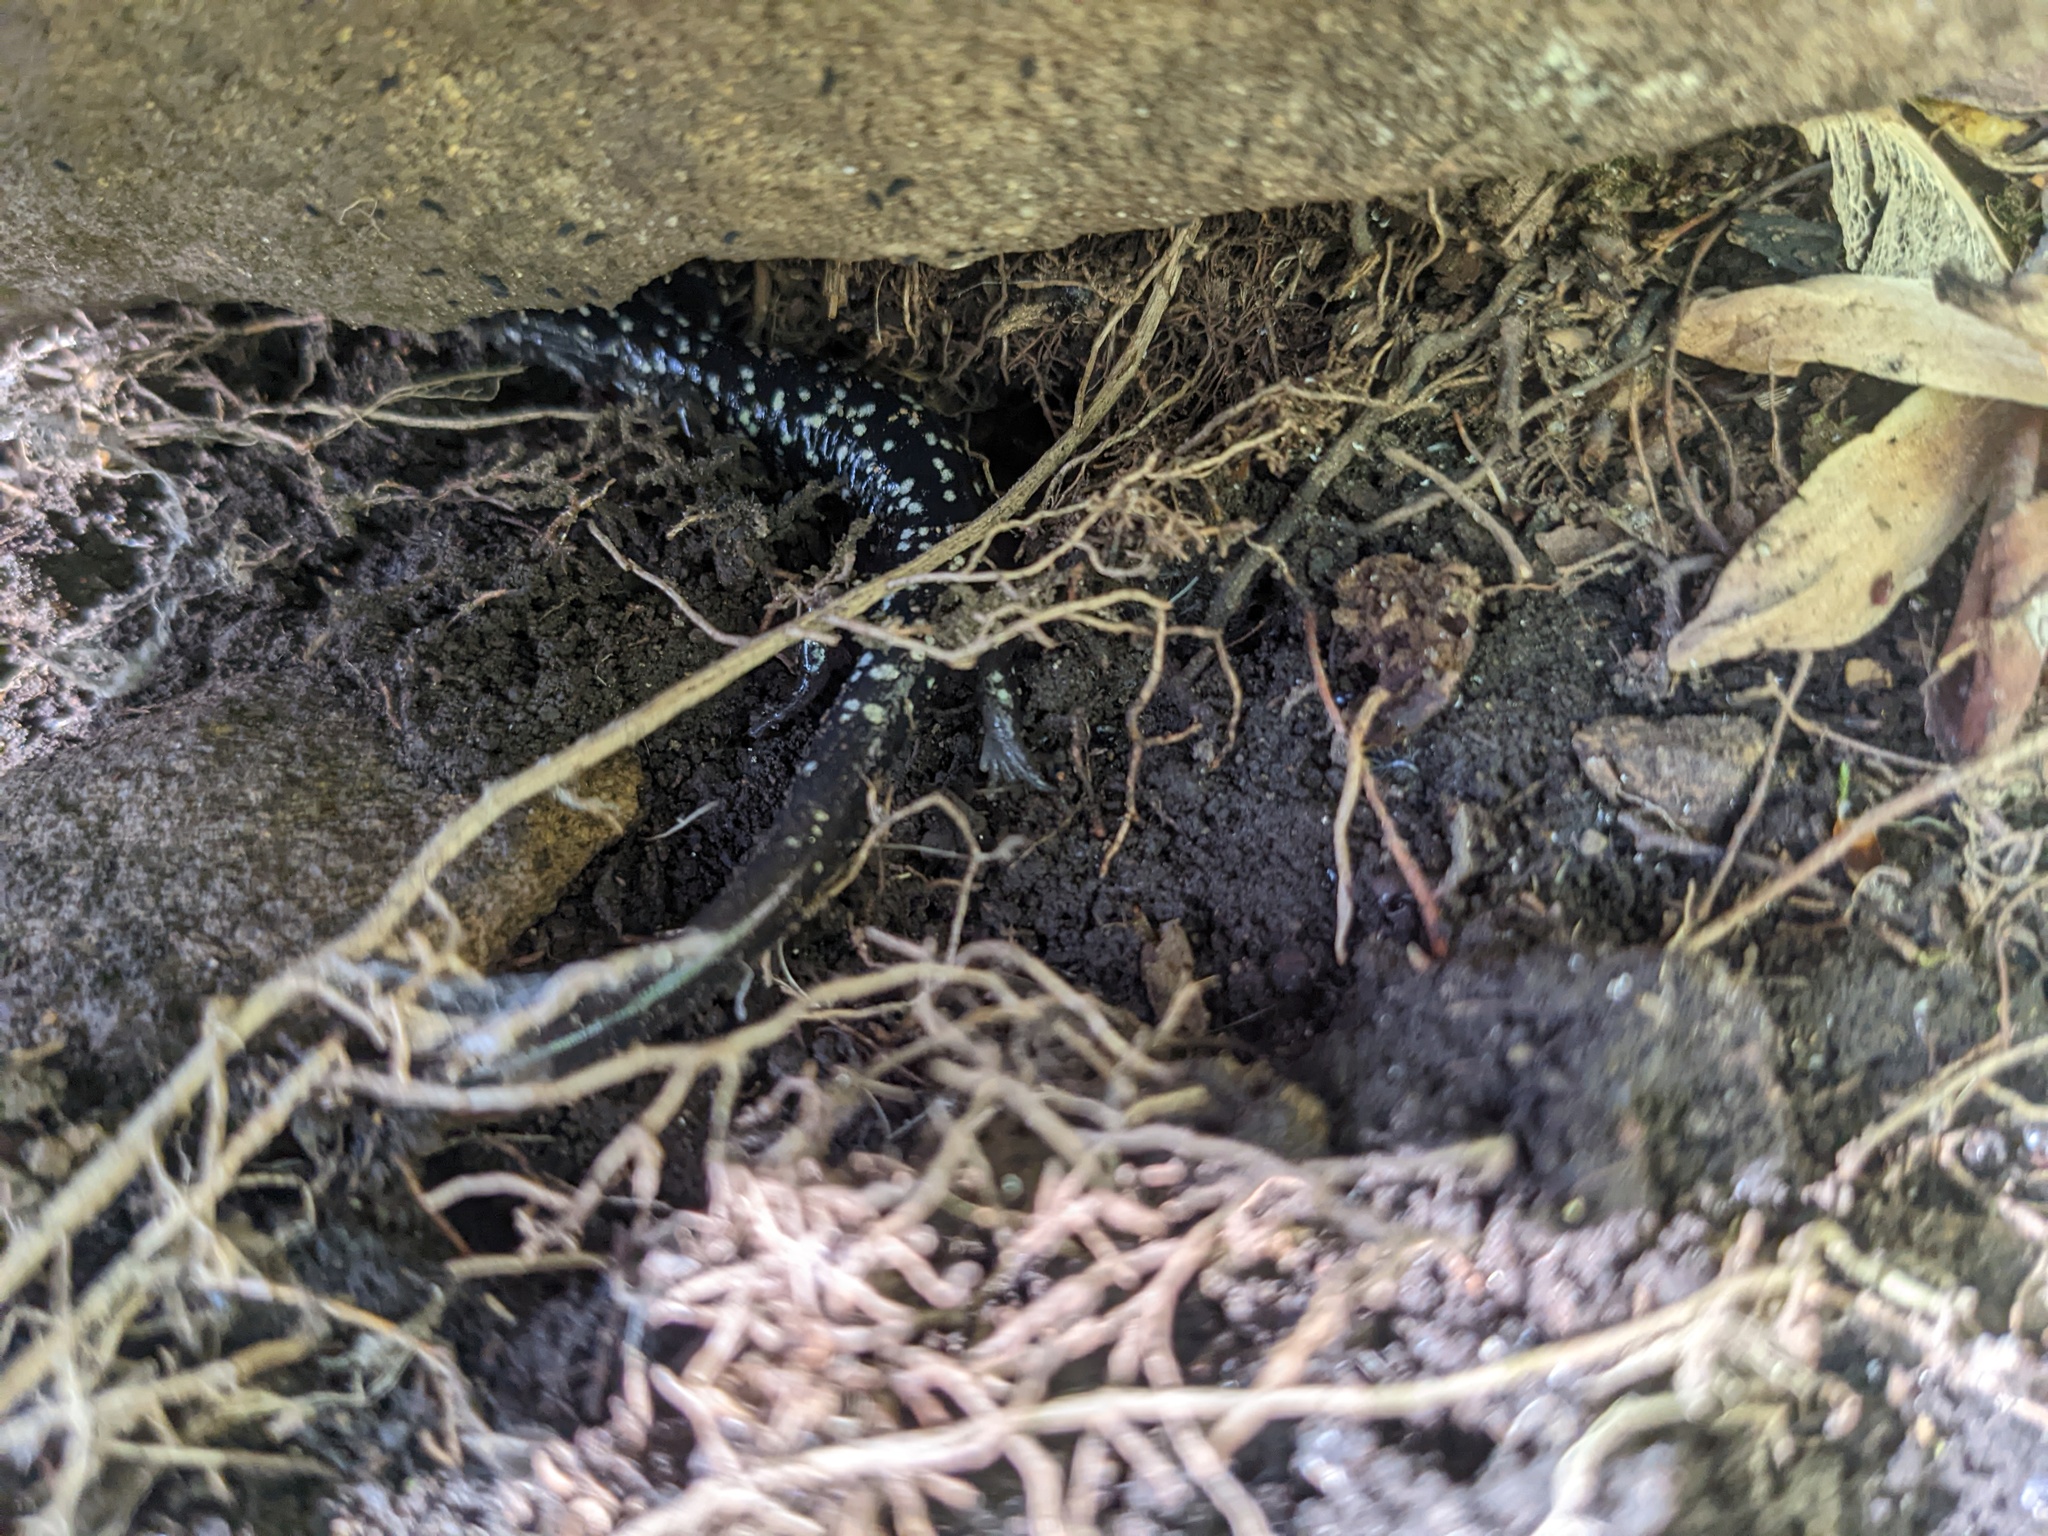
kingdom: Animalia
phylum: Chordata
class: Amphibia
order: Caudata
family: Plethodontidae
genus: Plethodon
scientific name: Plethodon glutinosus
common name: Northern slimy salamander
